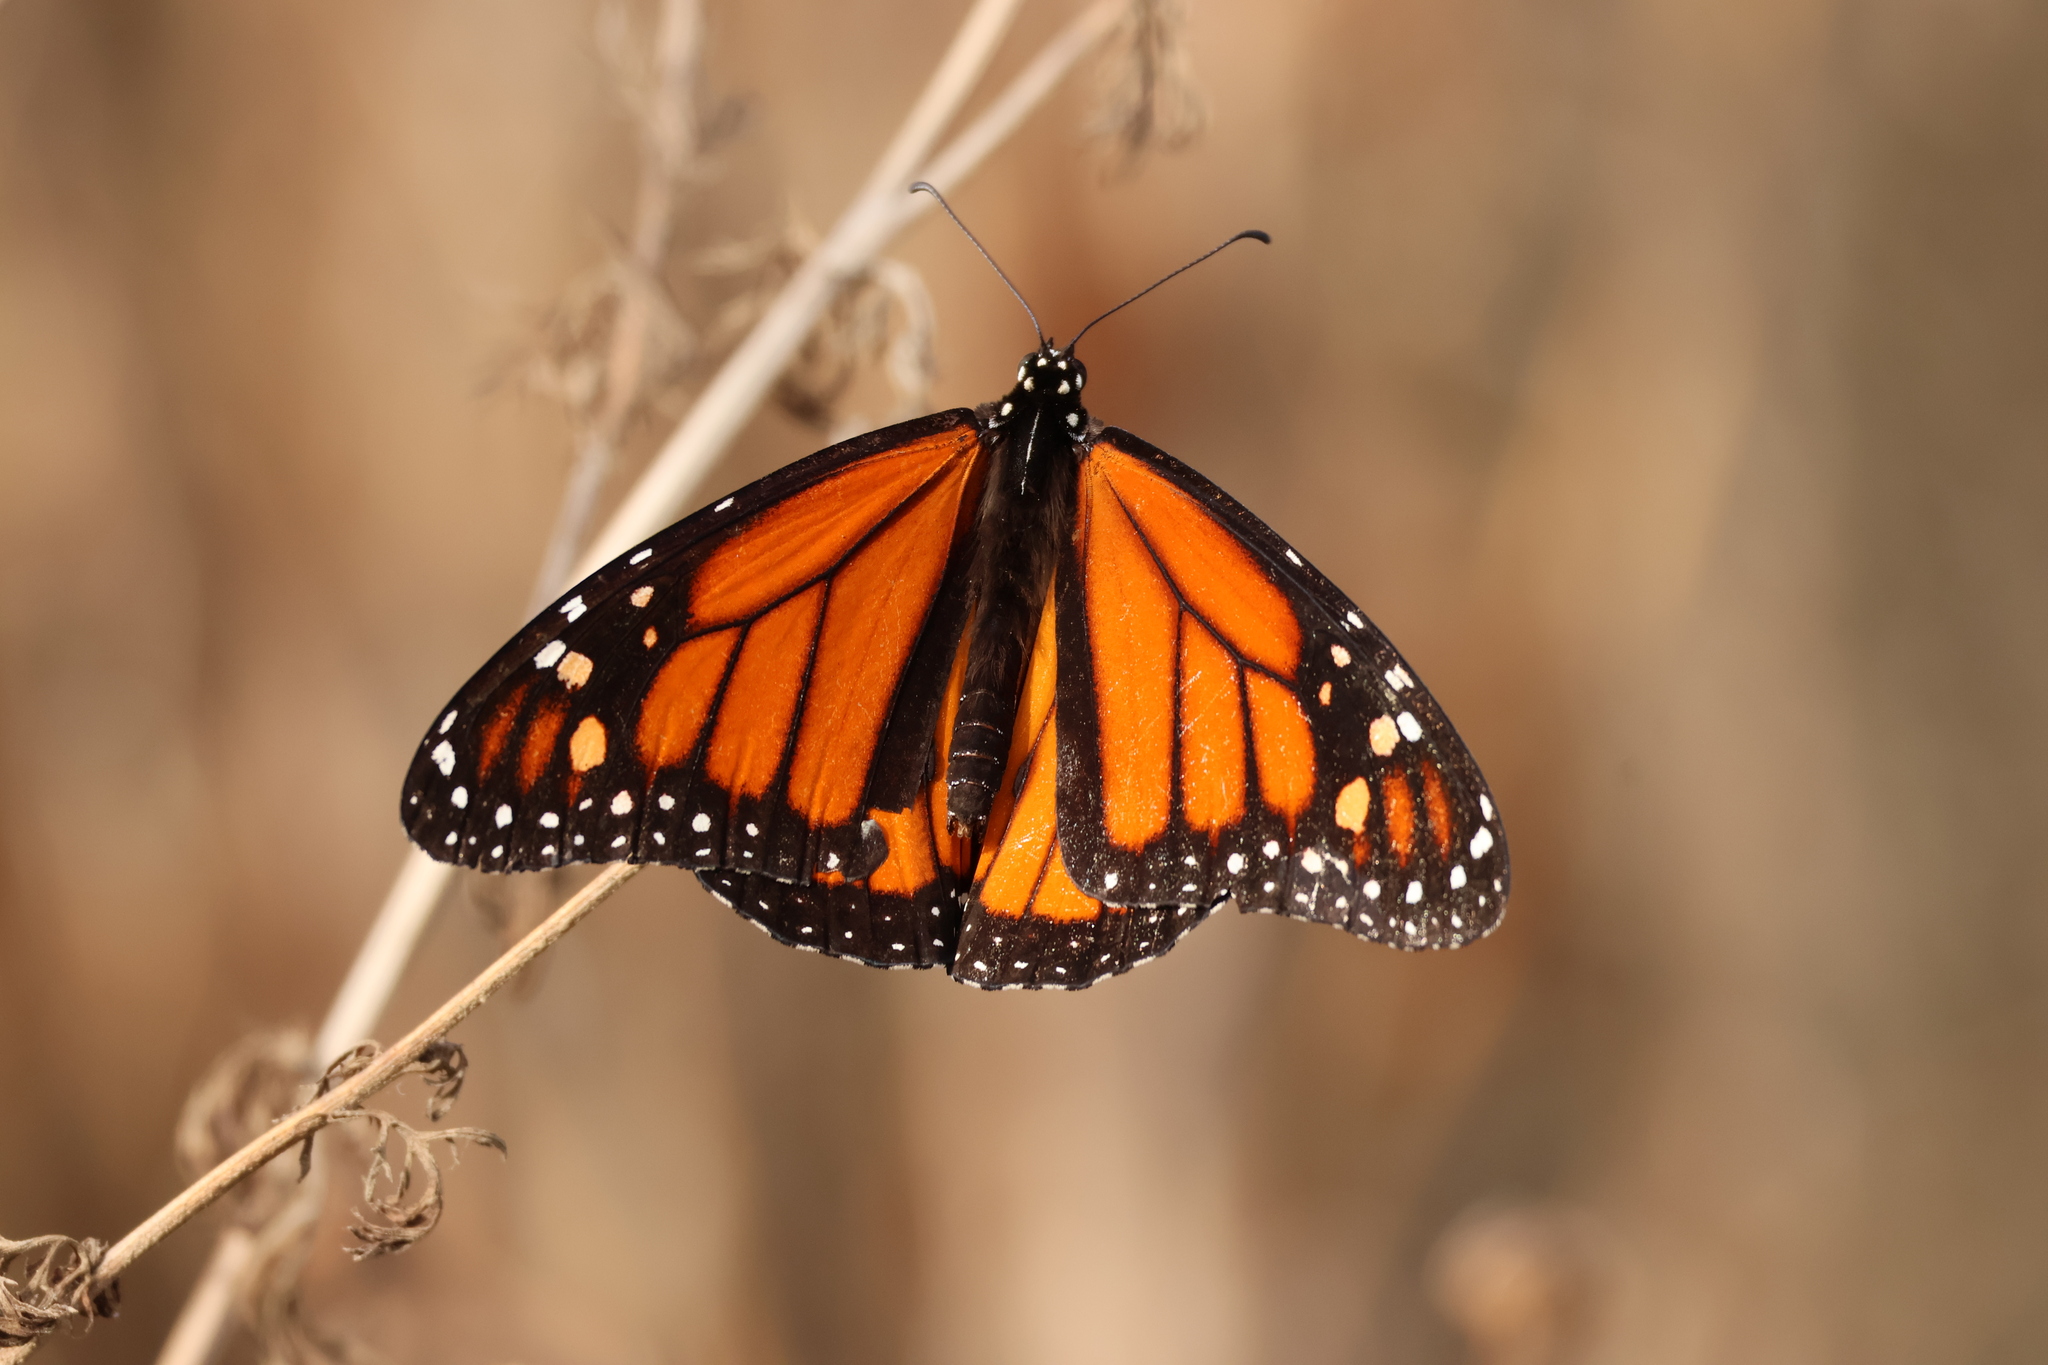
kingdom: Animalia
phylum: Arthropoda
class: Insecta
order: Lepidoptera
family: Nymphalidae
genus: Danaus
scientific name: Danaus plexippus
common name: Monarch
